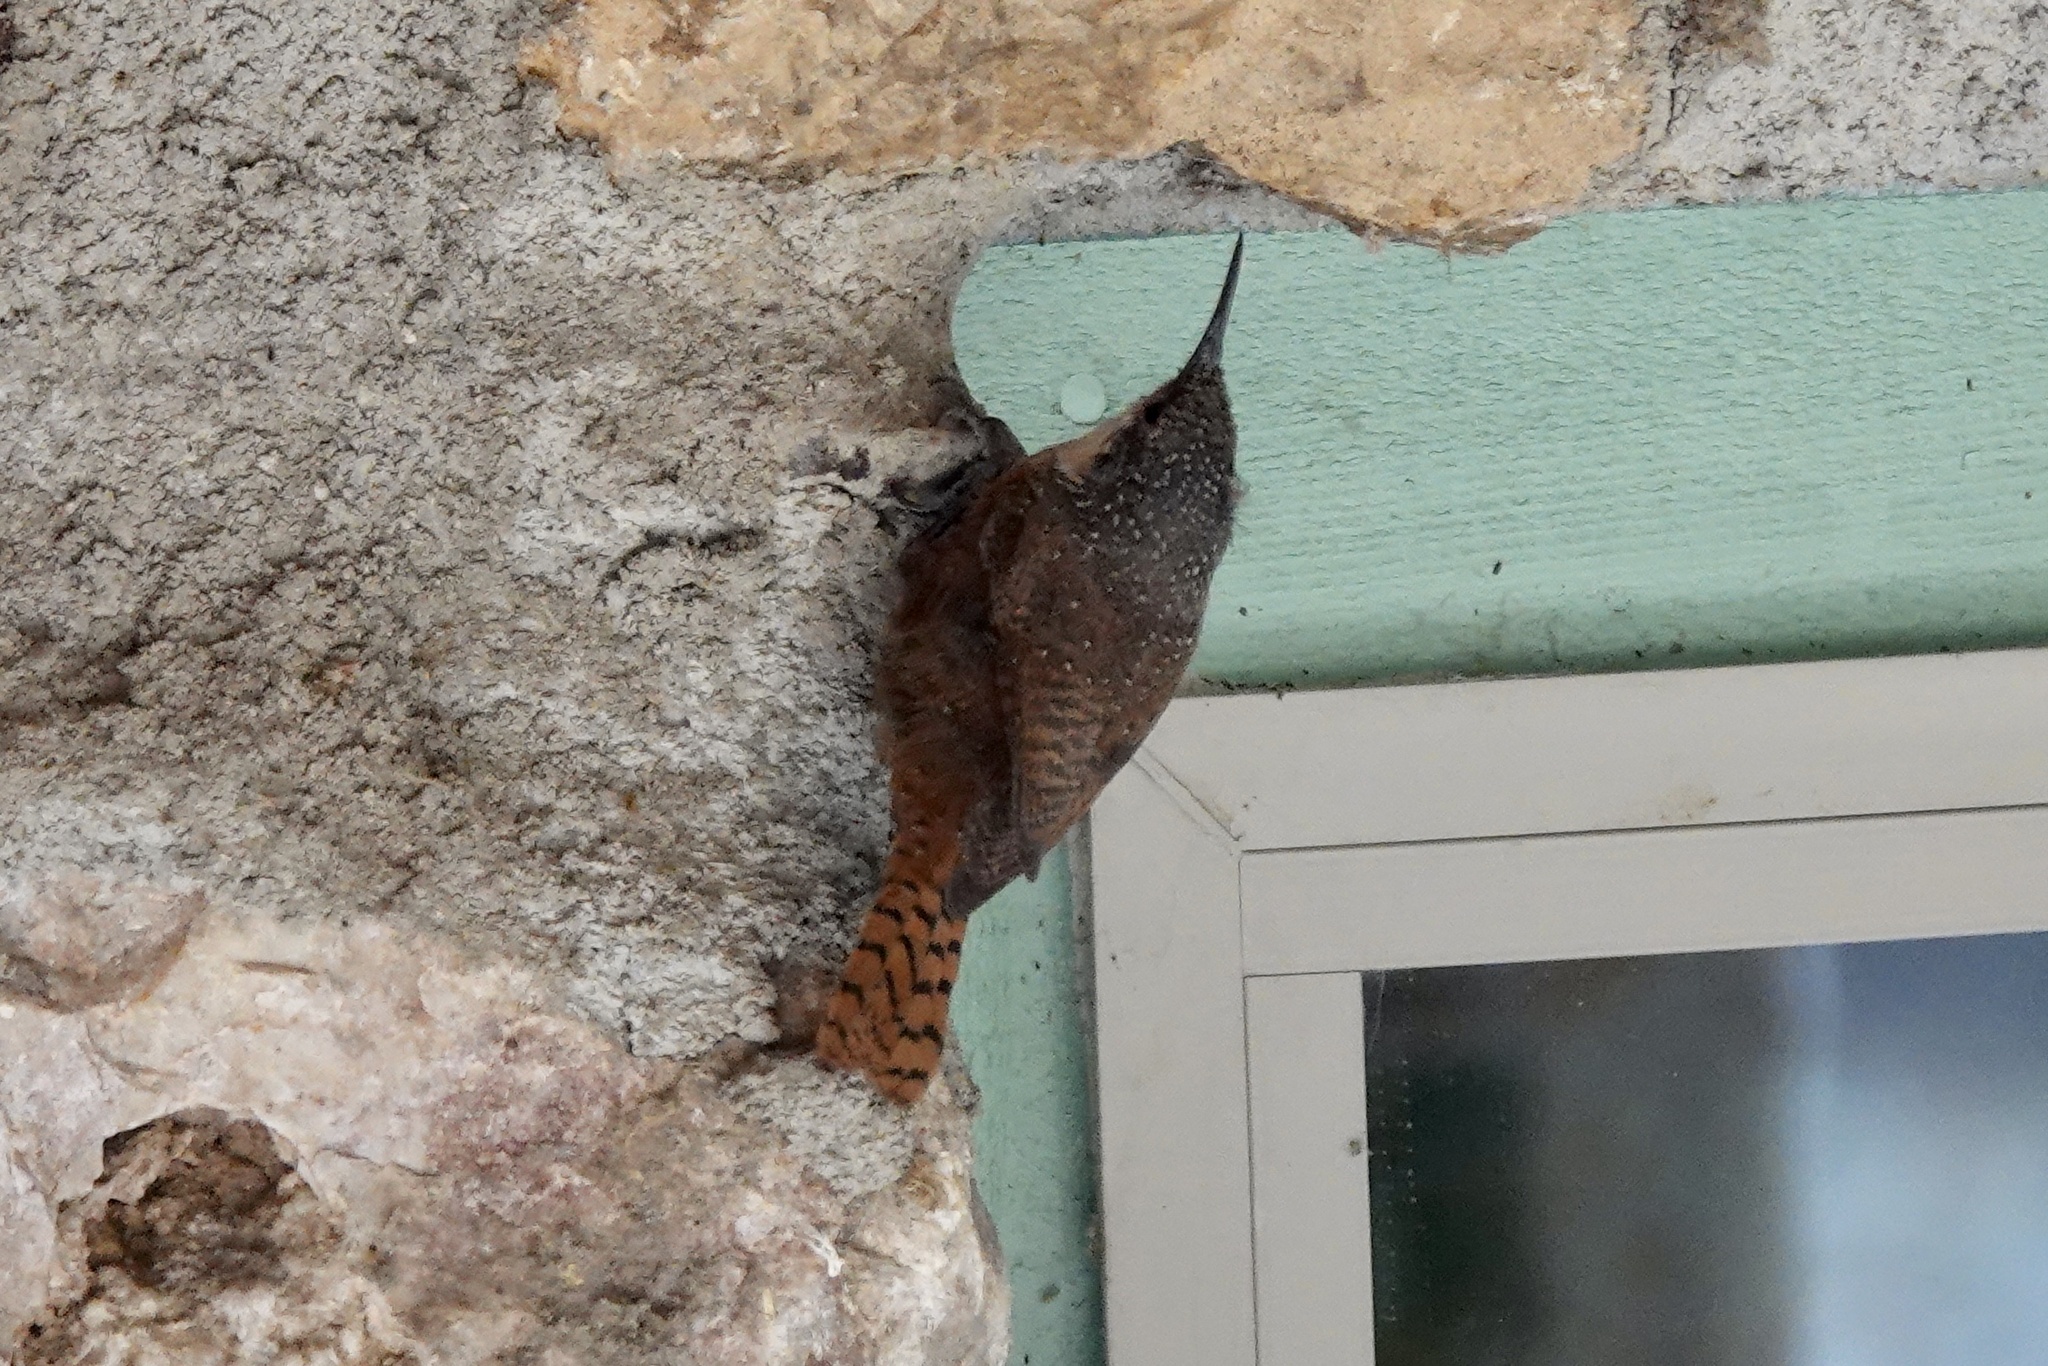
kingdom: Animalia
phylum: Chordata
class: Aves
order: Passeriformes
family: Troglodytidae
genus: Catherpes
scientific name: Catherpes mexicanus
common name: Canyon wren
